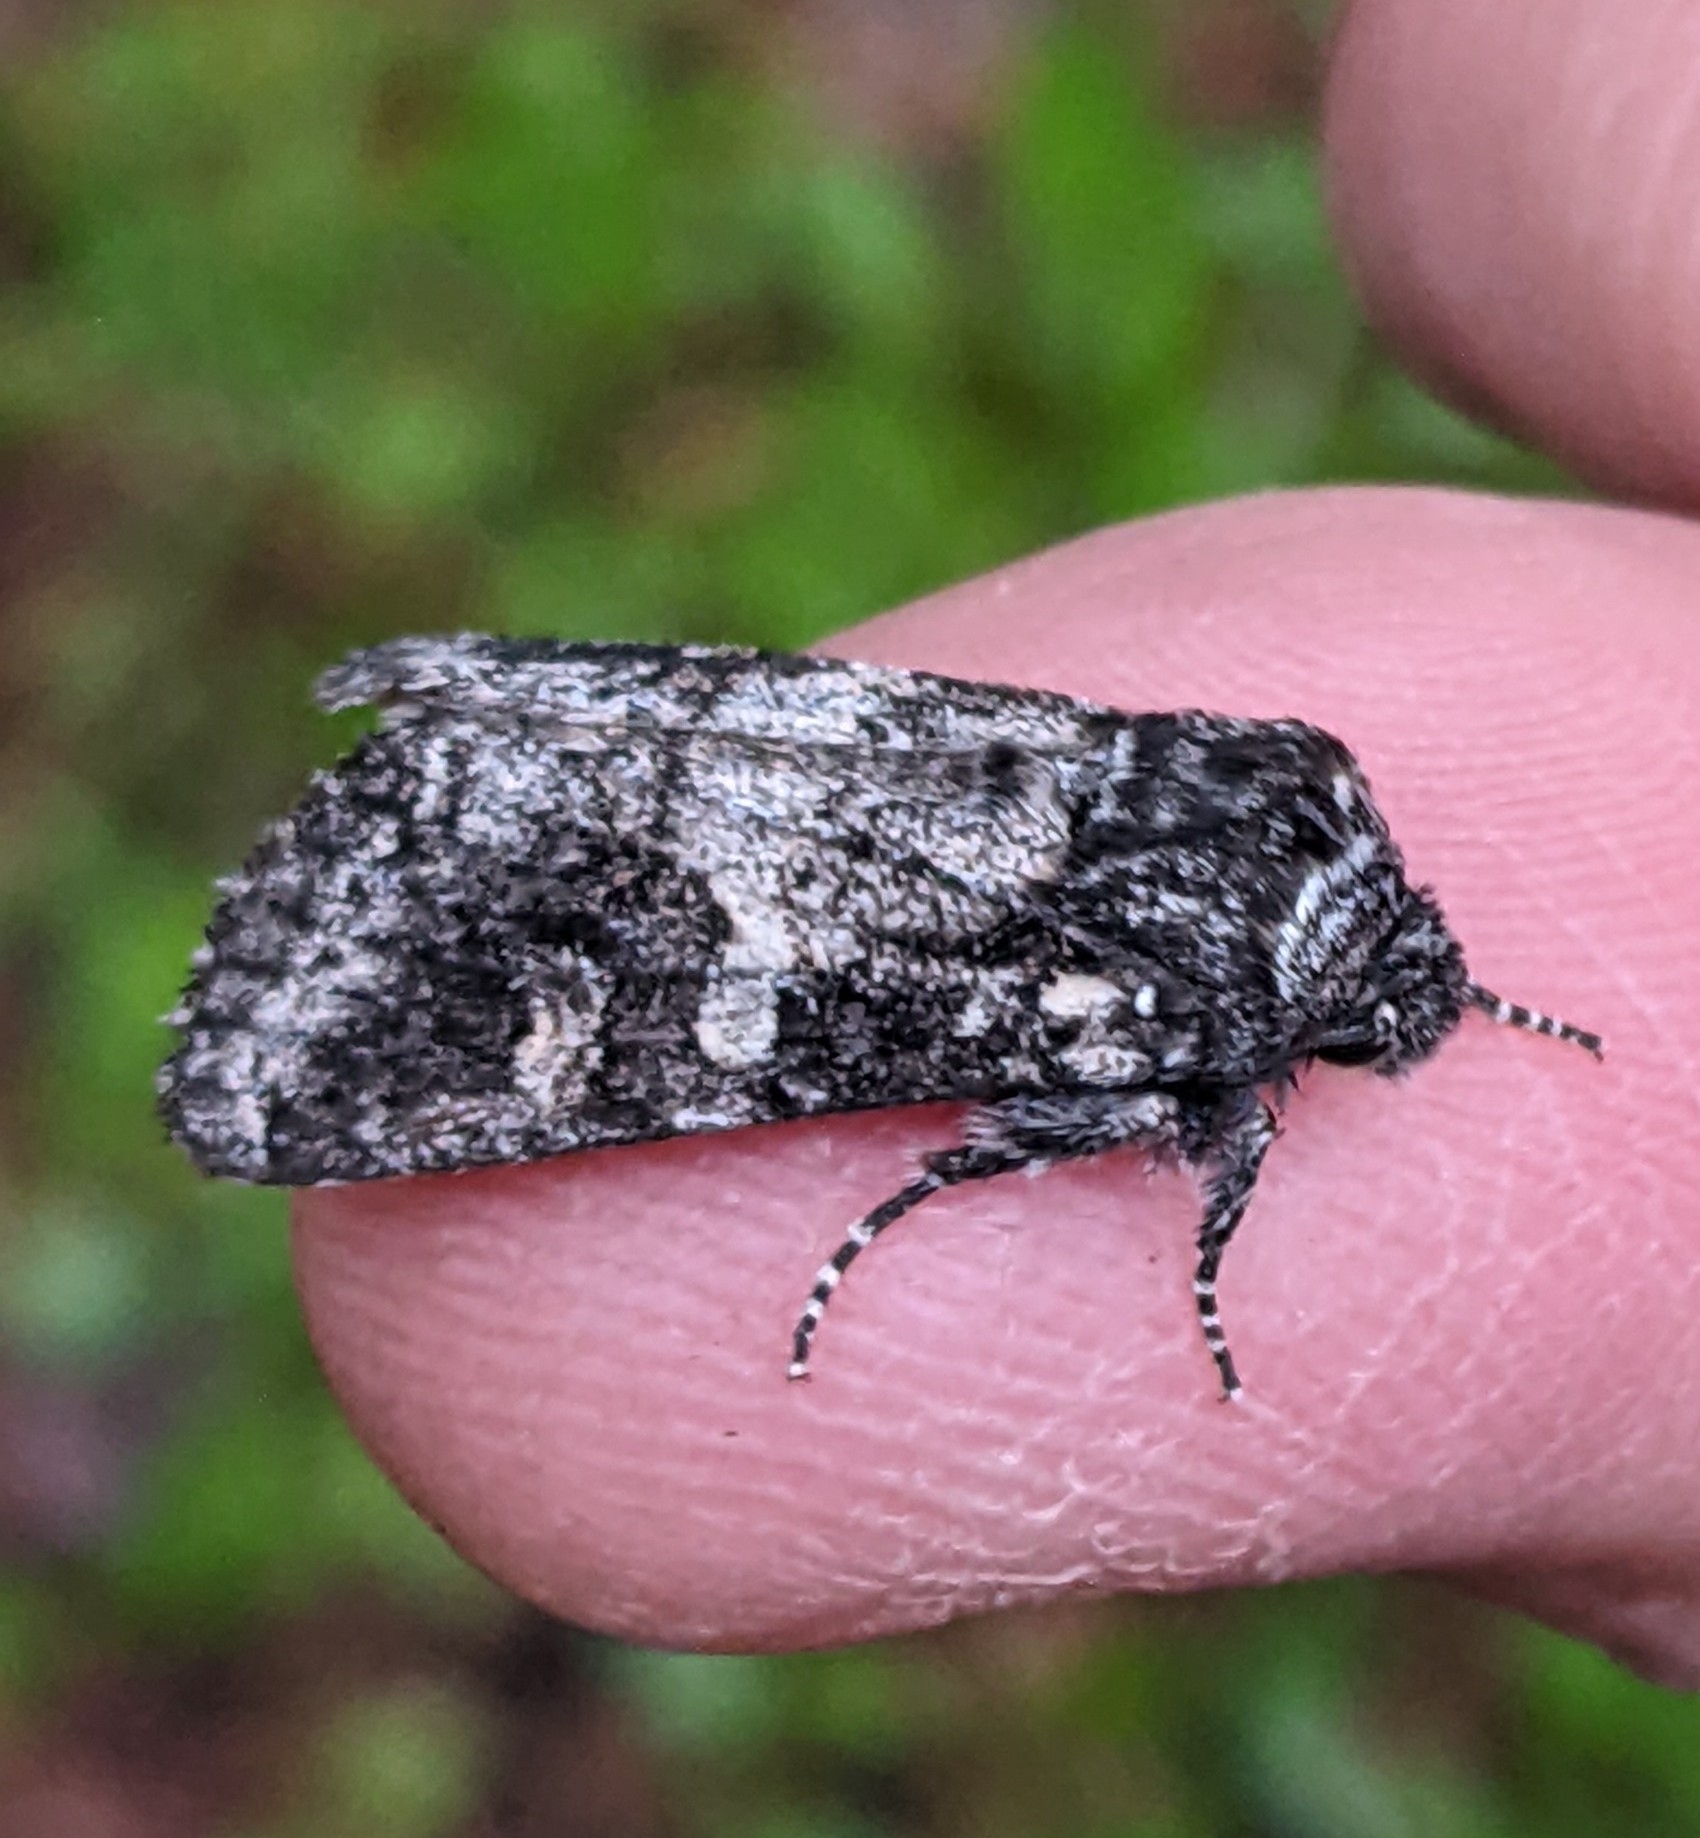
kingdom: Animalia
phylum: Arthropoda
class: Insecta
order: Lepidoptera
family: Noctuidae
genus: Egira
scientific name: Egira dolosa
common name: Lined black aspen cat.
